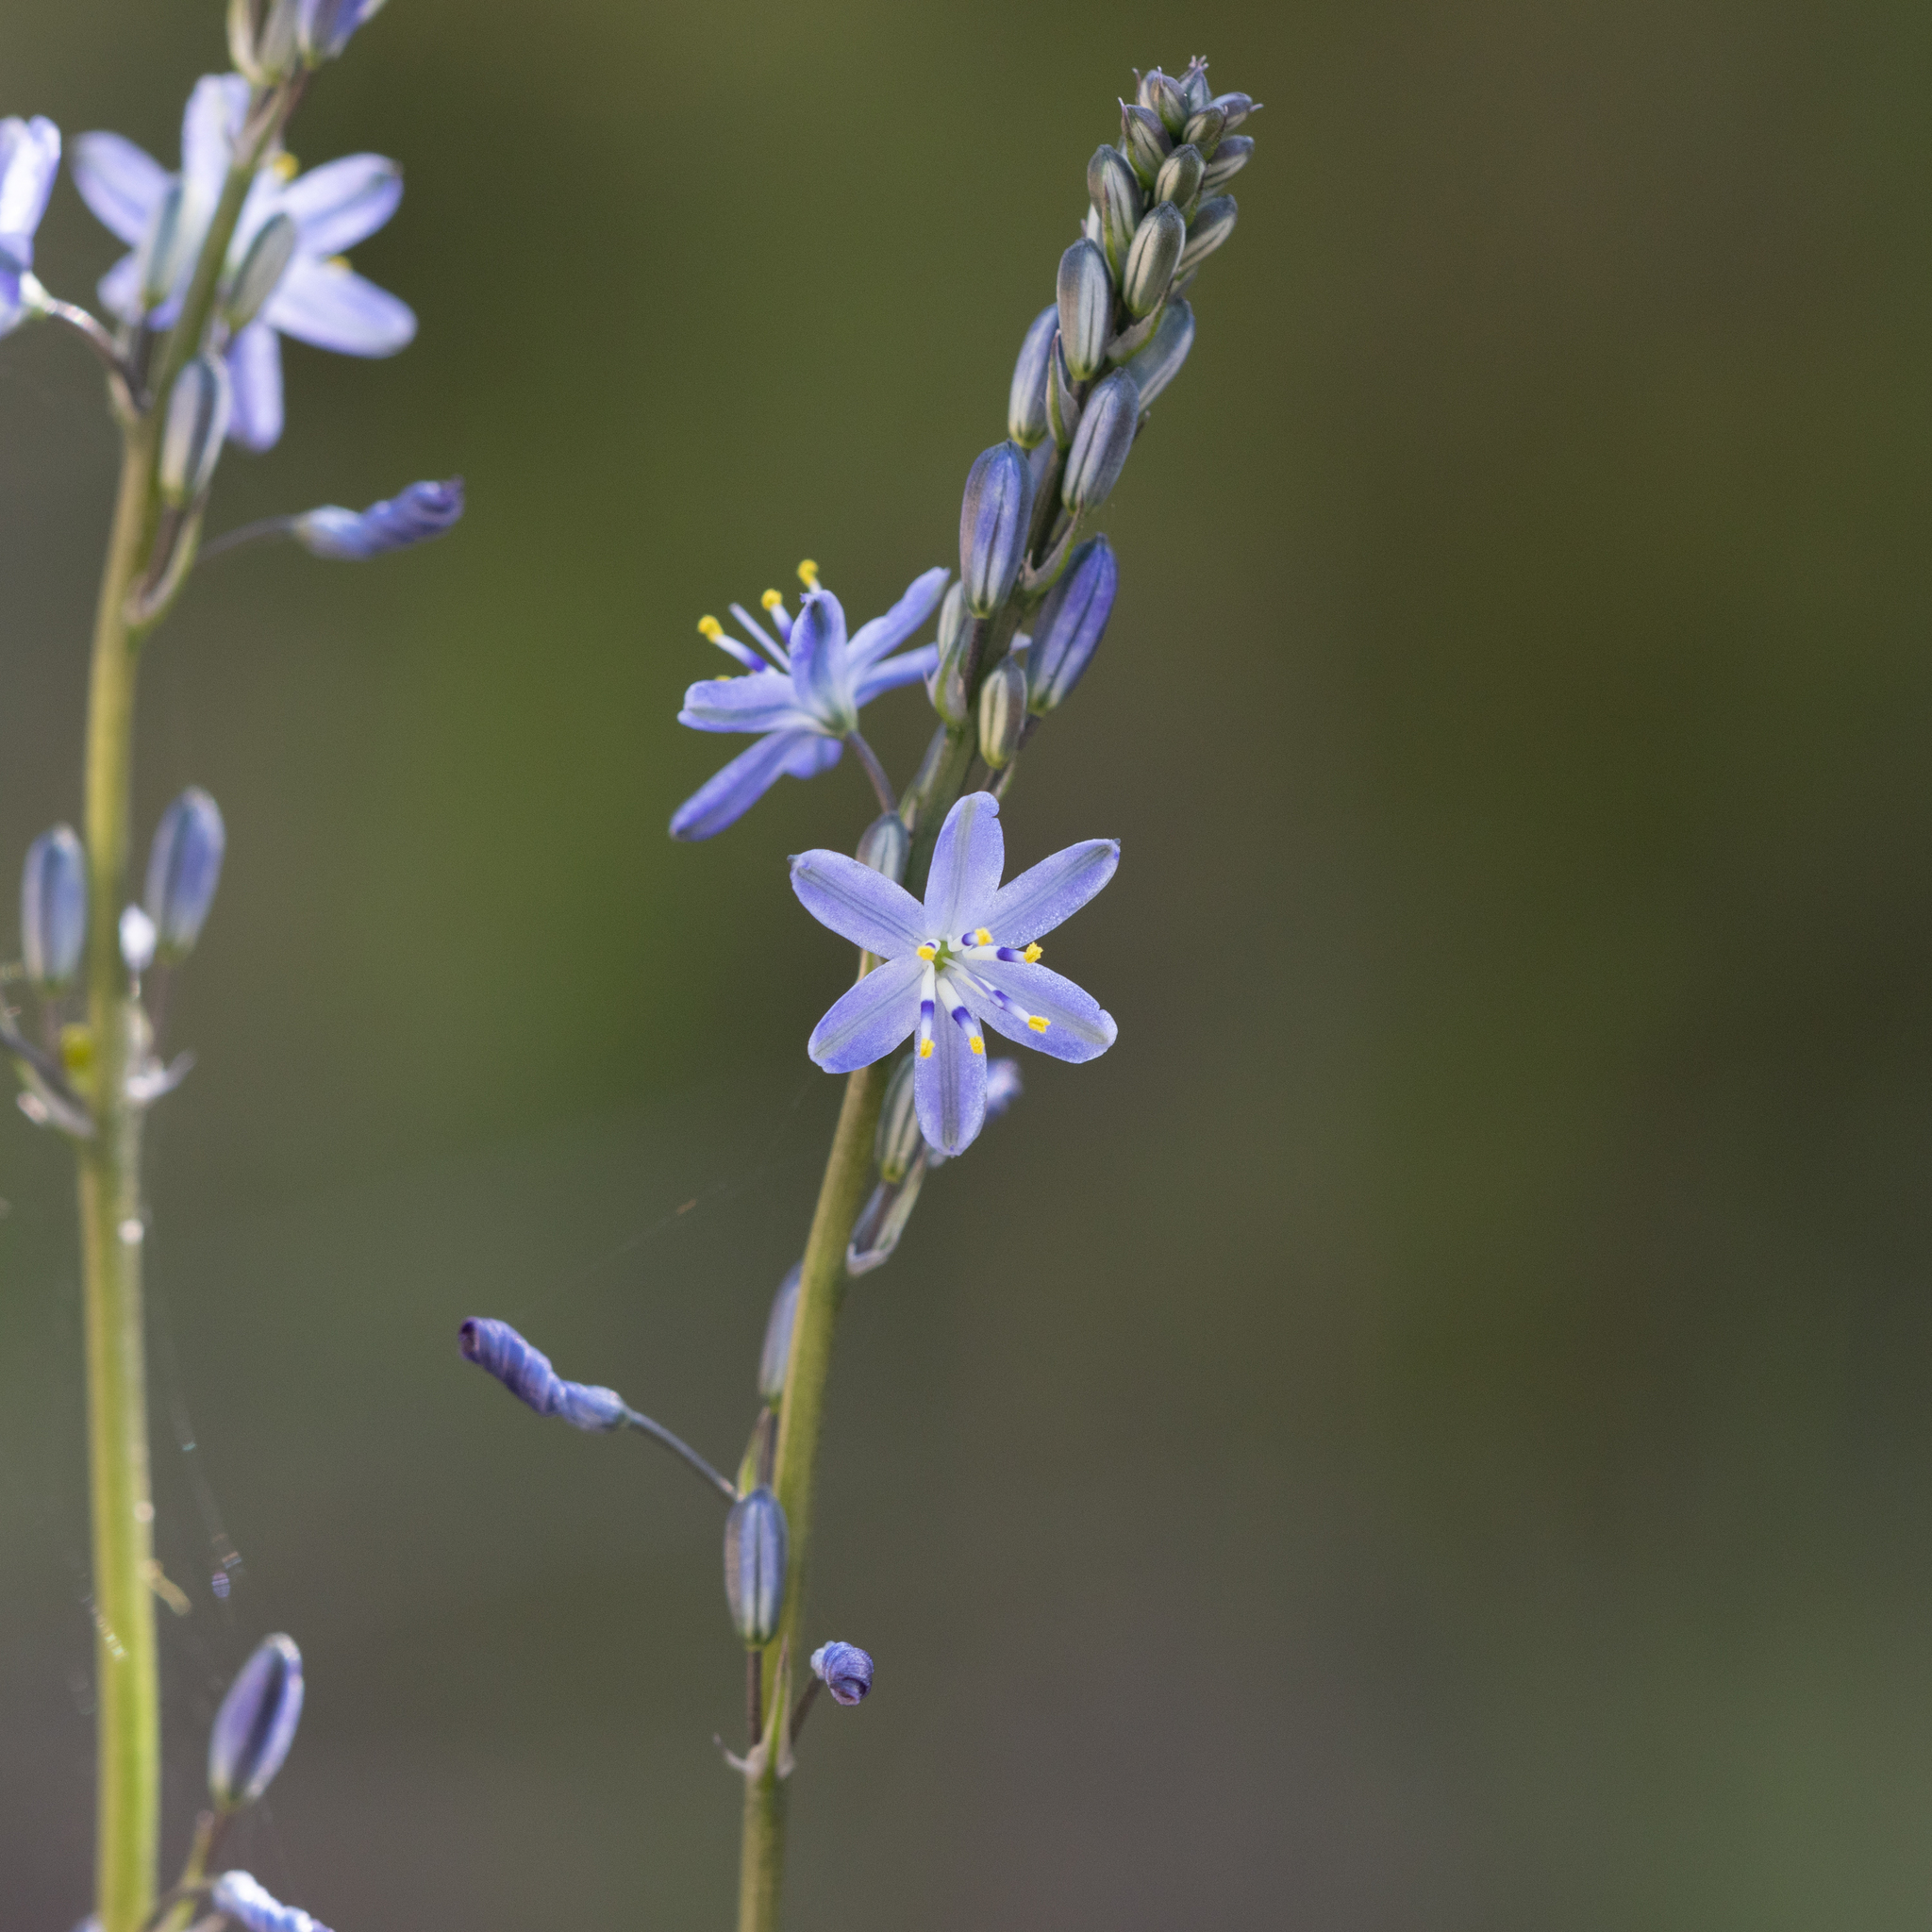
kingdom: Plantae
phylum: Tracheophyta
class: Liliopsida
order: Asparagales
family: Asphodelaceae
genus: Caesia
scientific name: Caesia calliantha
